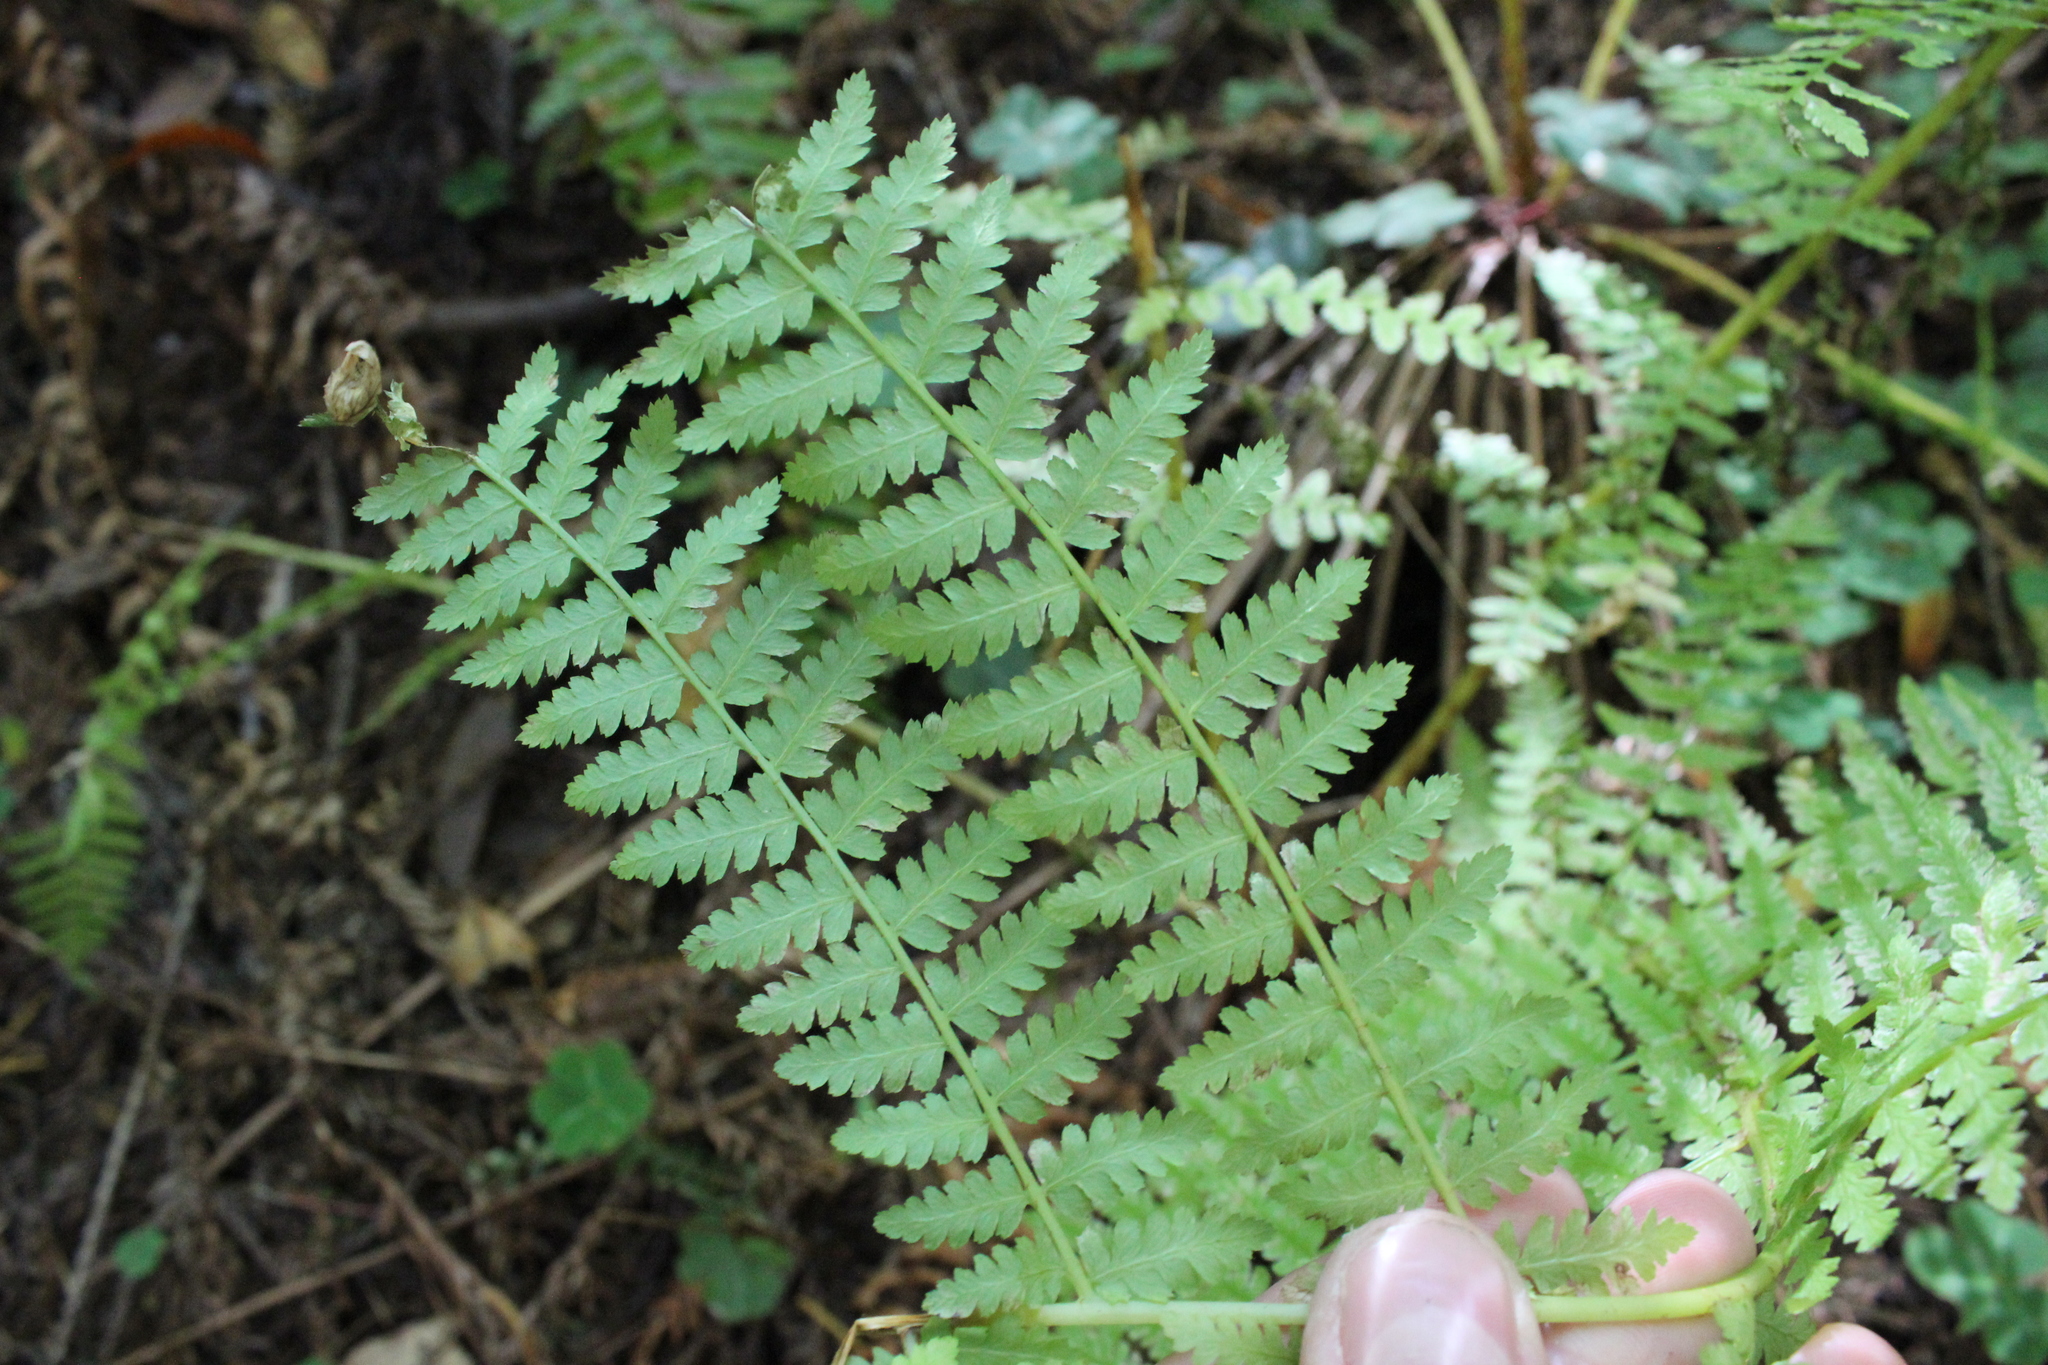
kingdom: Plantae
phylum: Tracheophyta
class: Polypodiopsida
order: Polypodiales
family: Athyriaceae
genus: Athyrium
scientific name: Athyrium filix-femina
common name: Lady fern
